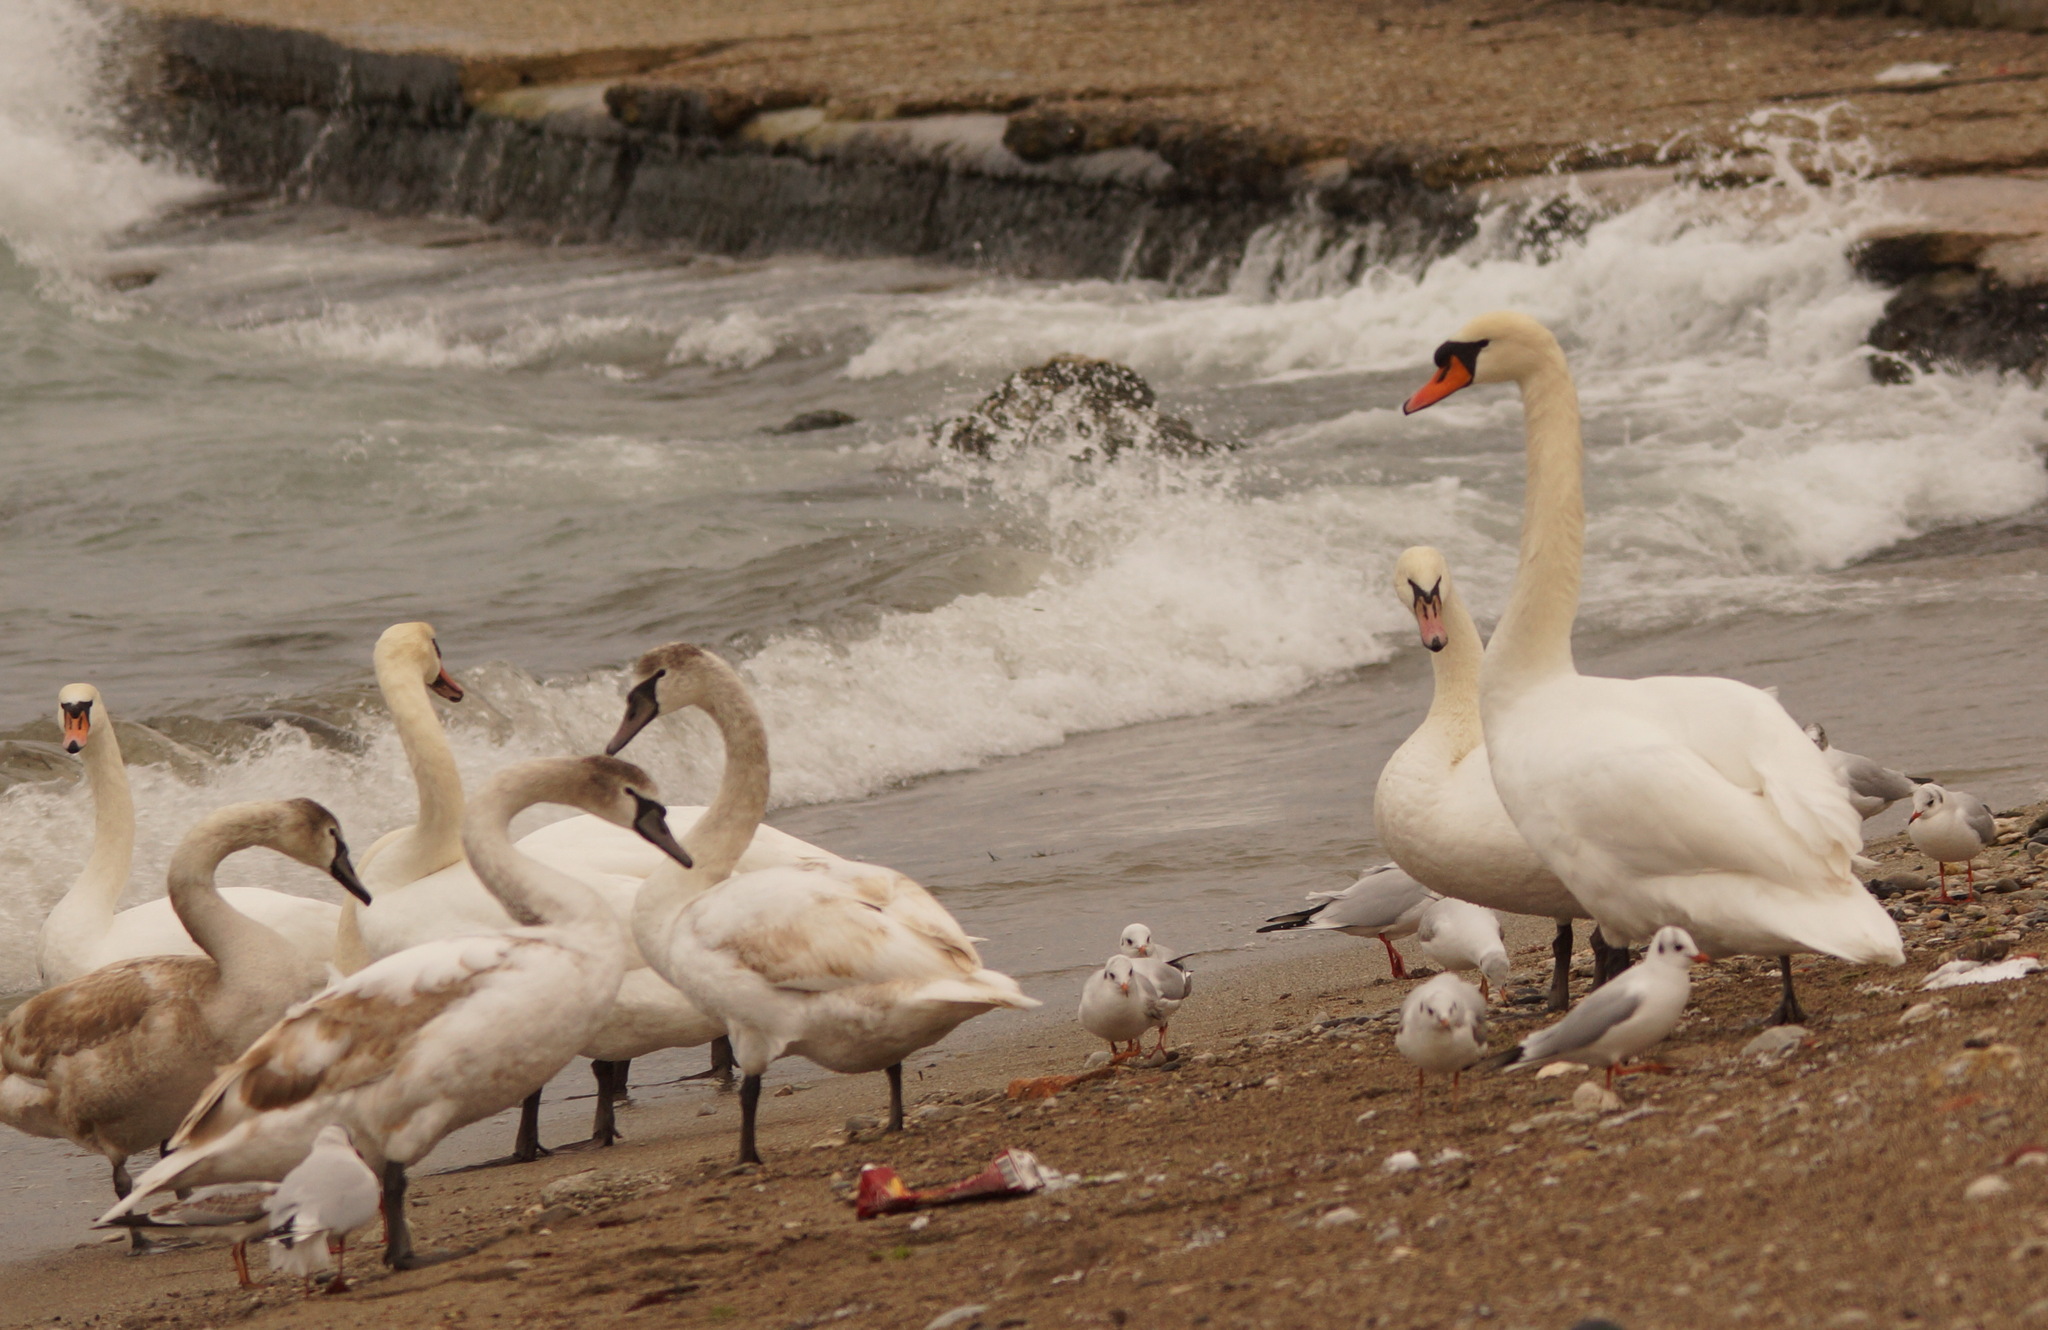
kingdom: Animalia
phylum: Chordata
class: Aves
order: Anseriformes
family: Anatidae
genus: Cygnus
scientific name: Cygnus olor
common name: Mute swan
